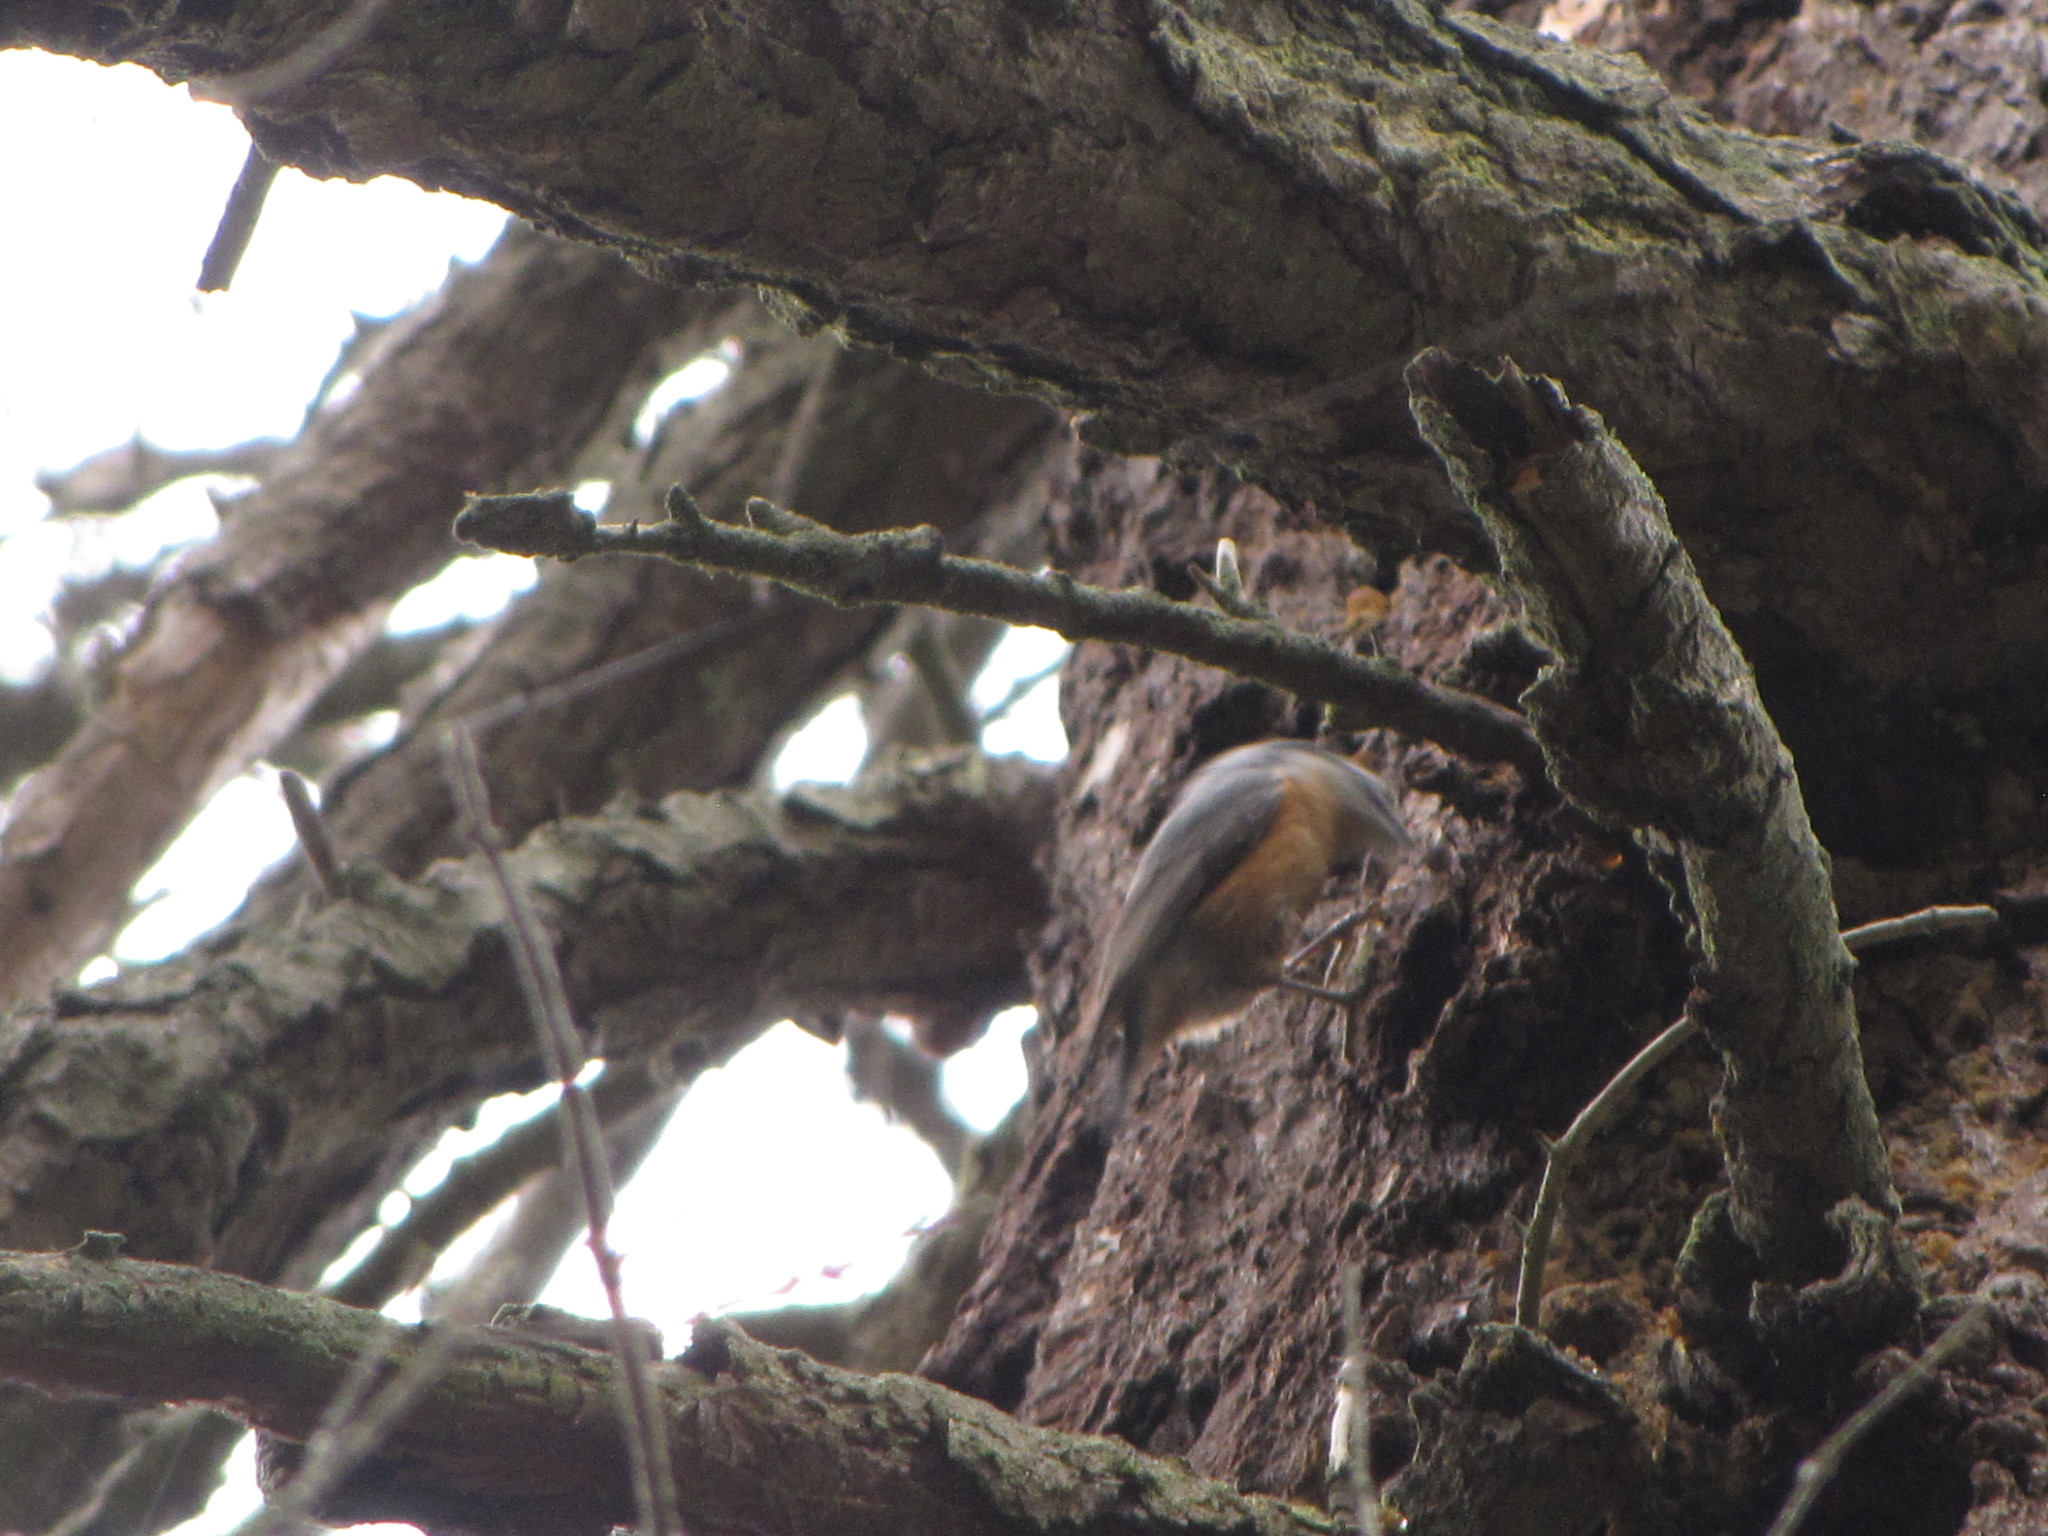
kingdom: Animalia
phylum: Chordata
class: Aves
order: Passeriformes
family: Sittidae
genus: Sitta
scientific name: Sitta canadensis
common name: Red-breasted nuthatch
